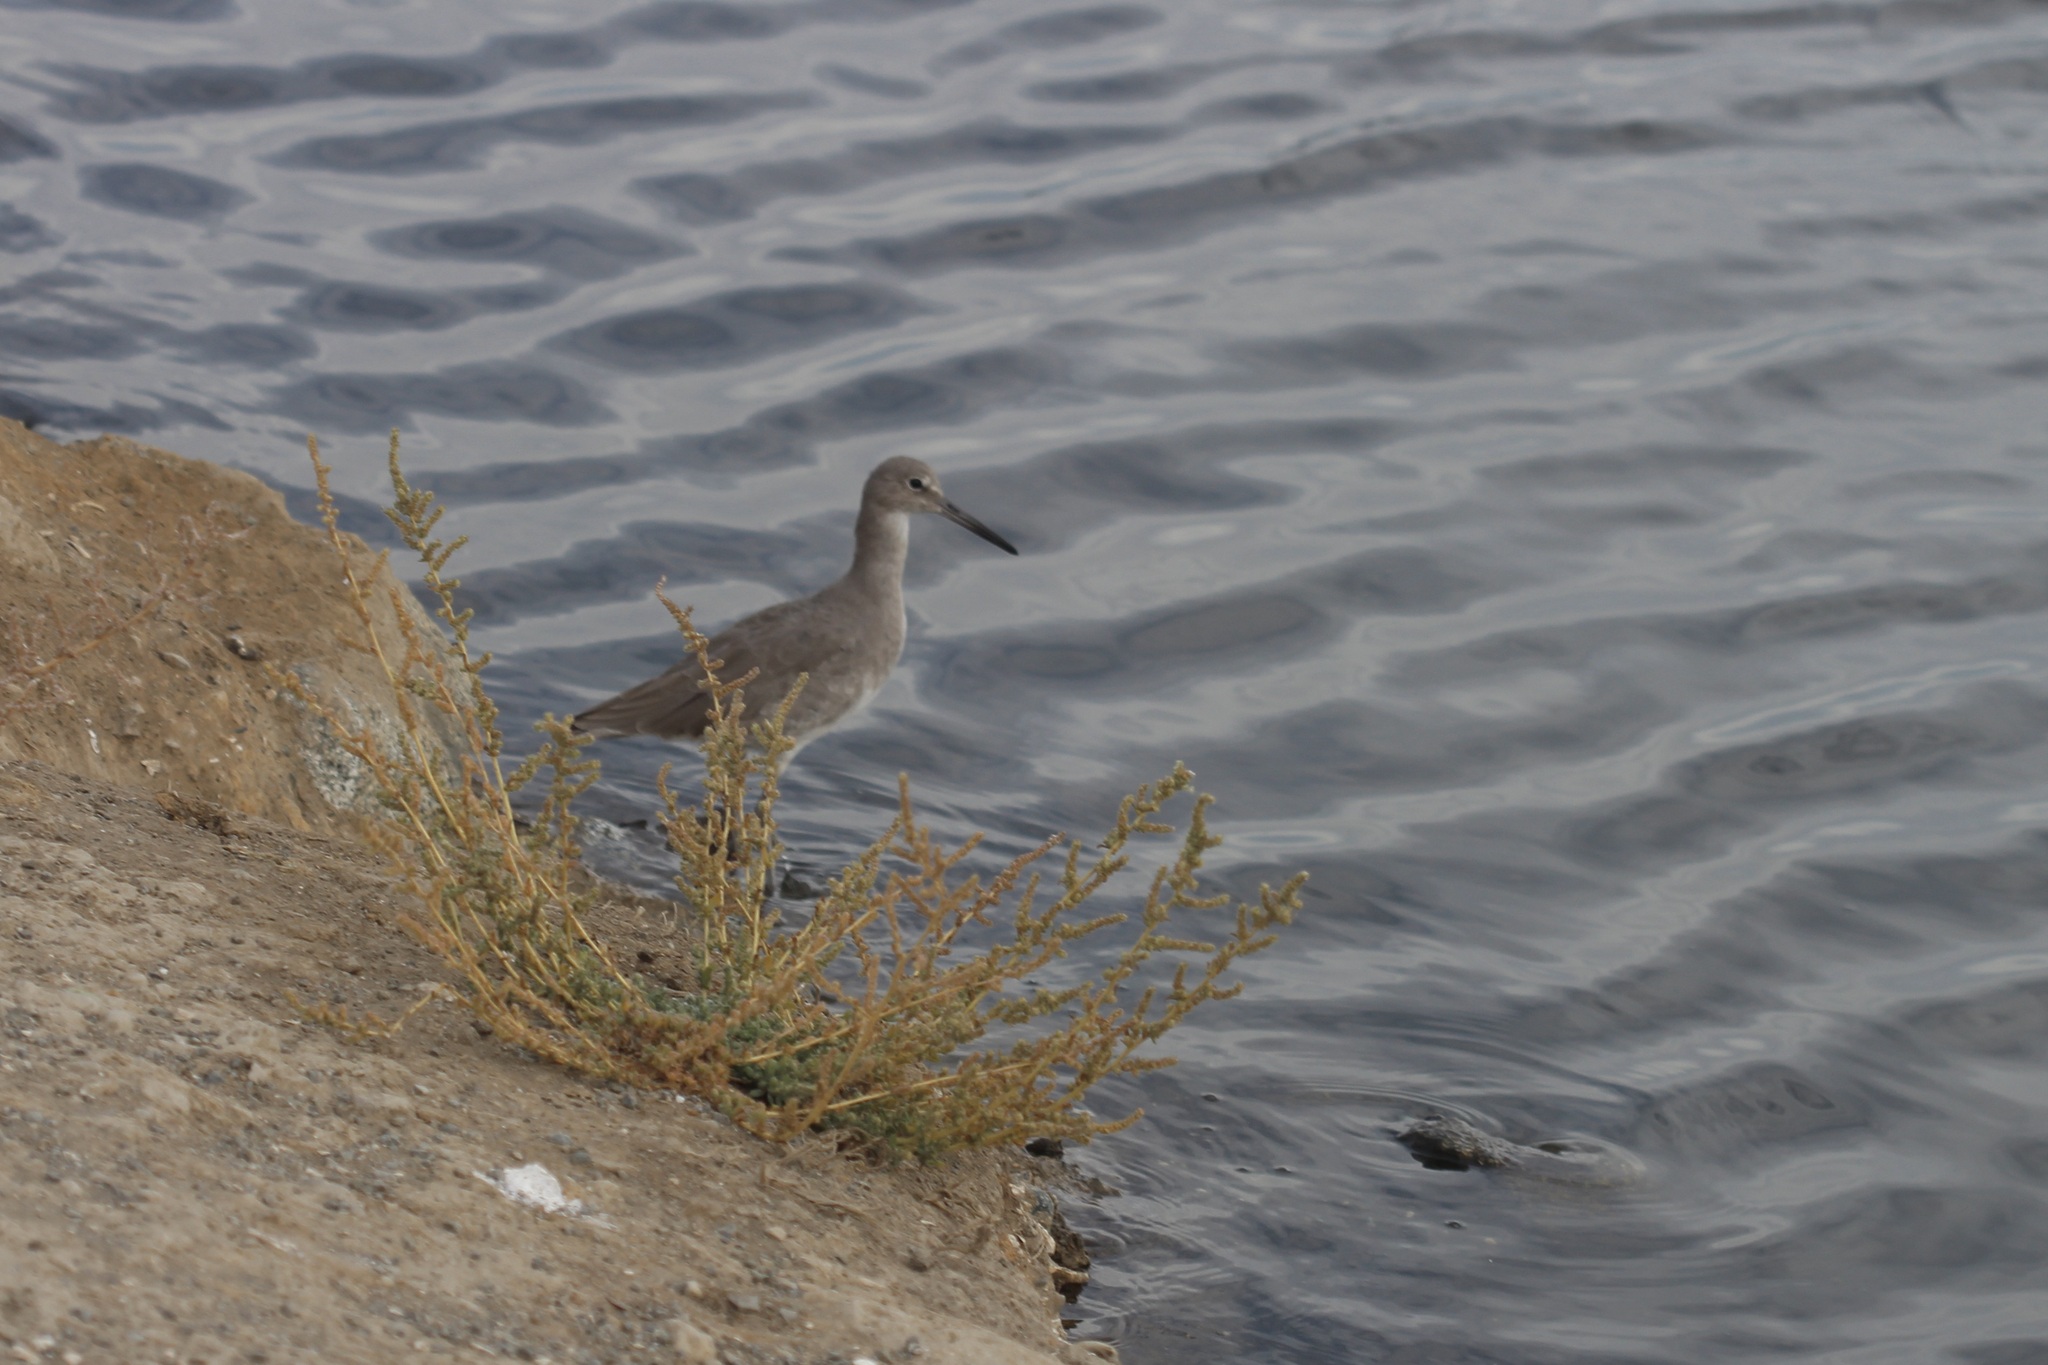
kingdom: Animalia
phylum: Chordata
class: Aves
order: Charadriiformes
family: Scolopacidae
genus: Tringa
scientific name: Tringa semipalmata
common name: Willet
